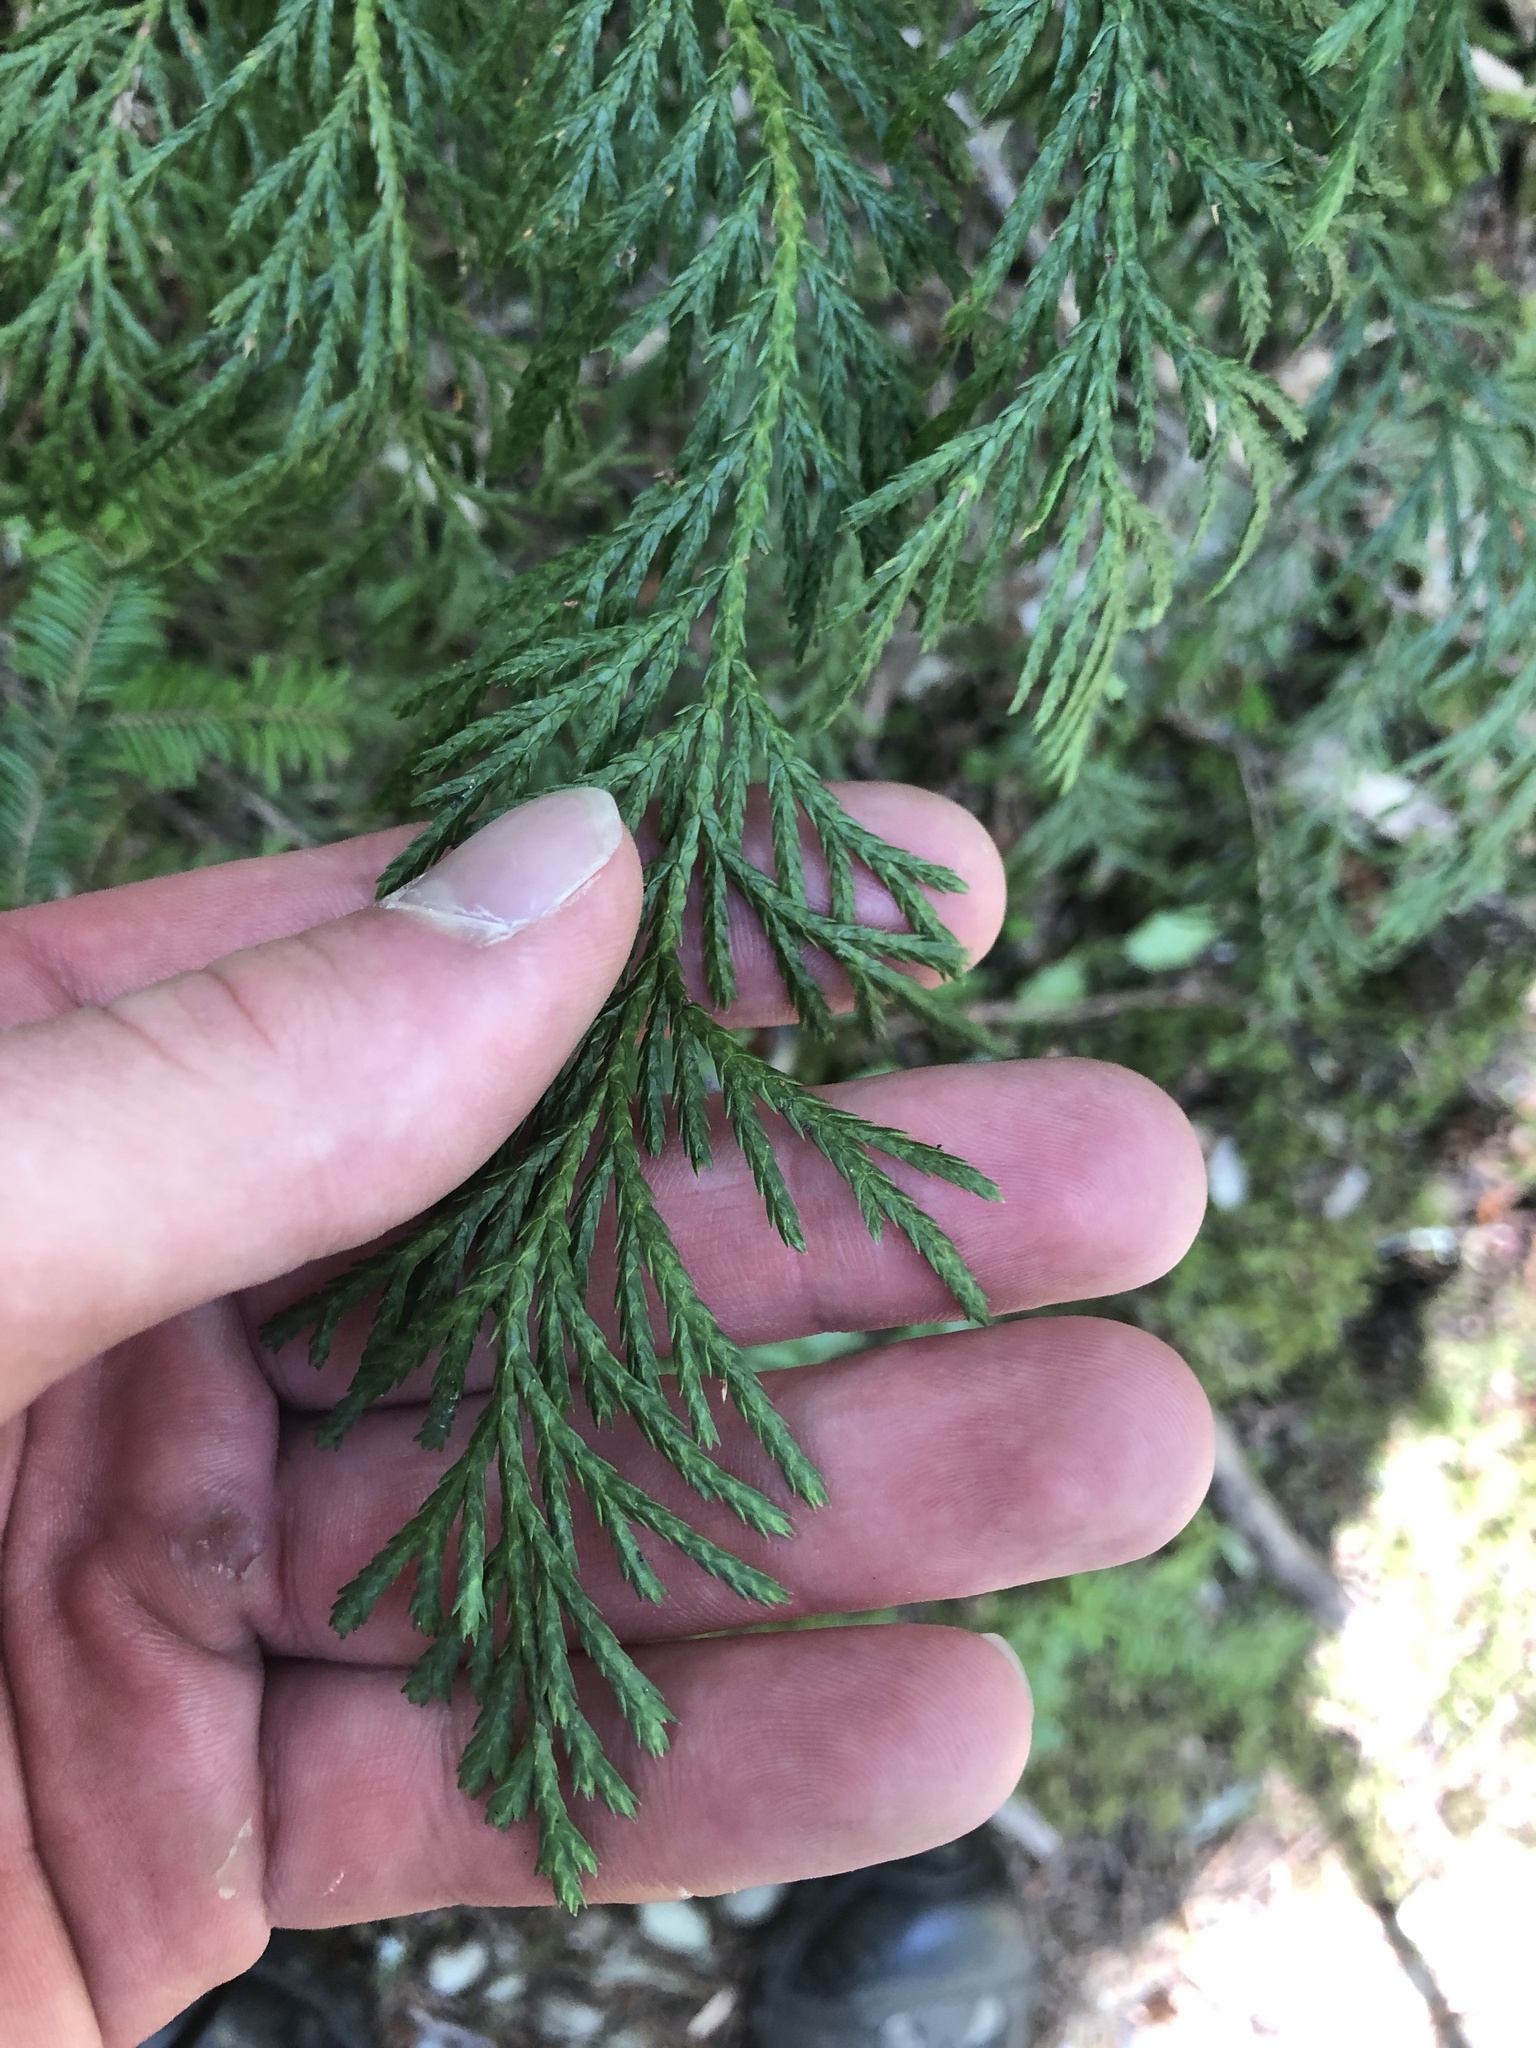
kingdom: Plantae
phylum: Tracheophyta
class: Pinopsida
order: Pinales
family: Cupressaceae
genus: Xanthocyparis
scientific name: Xanthocyparis nootkatensis
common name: Nootka cypress
